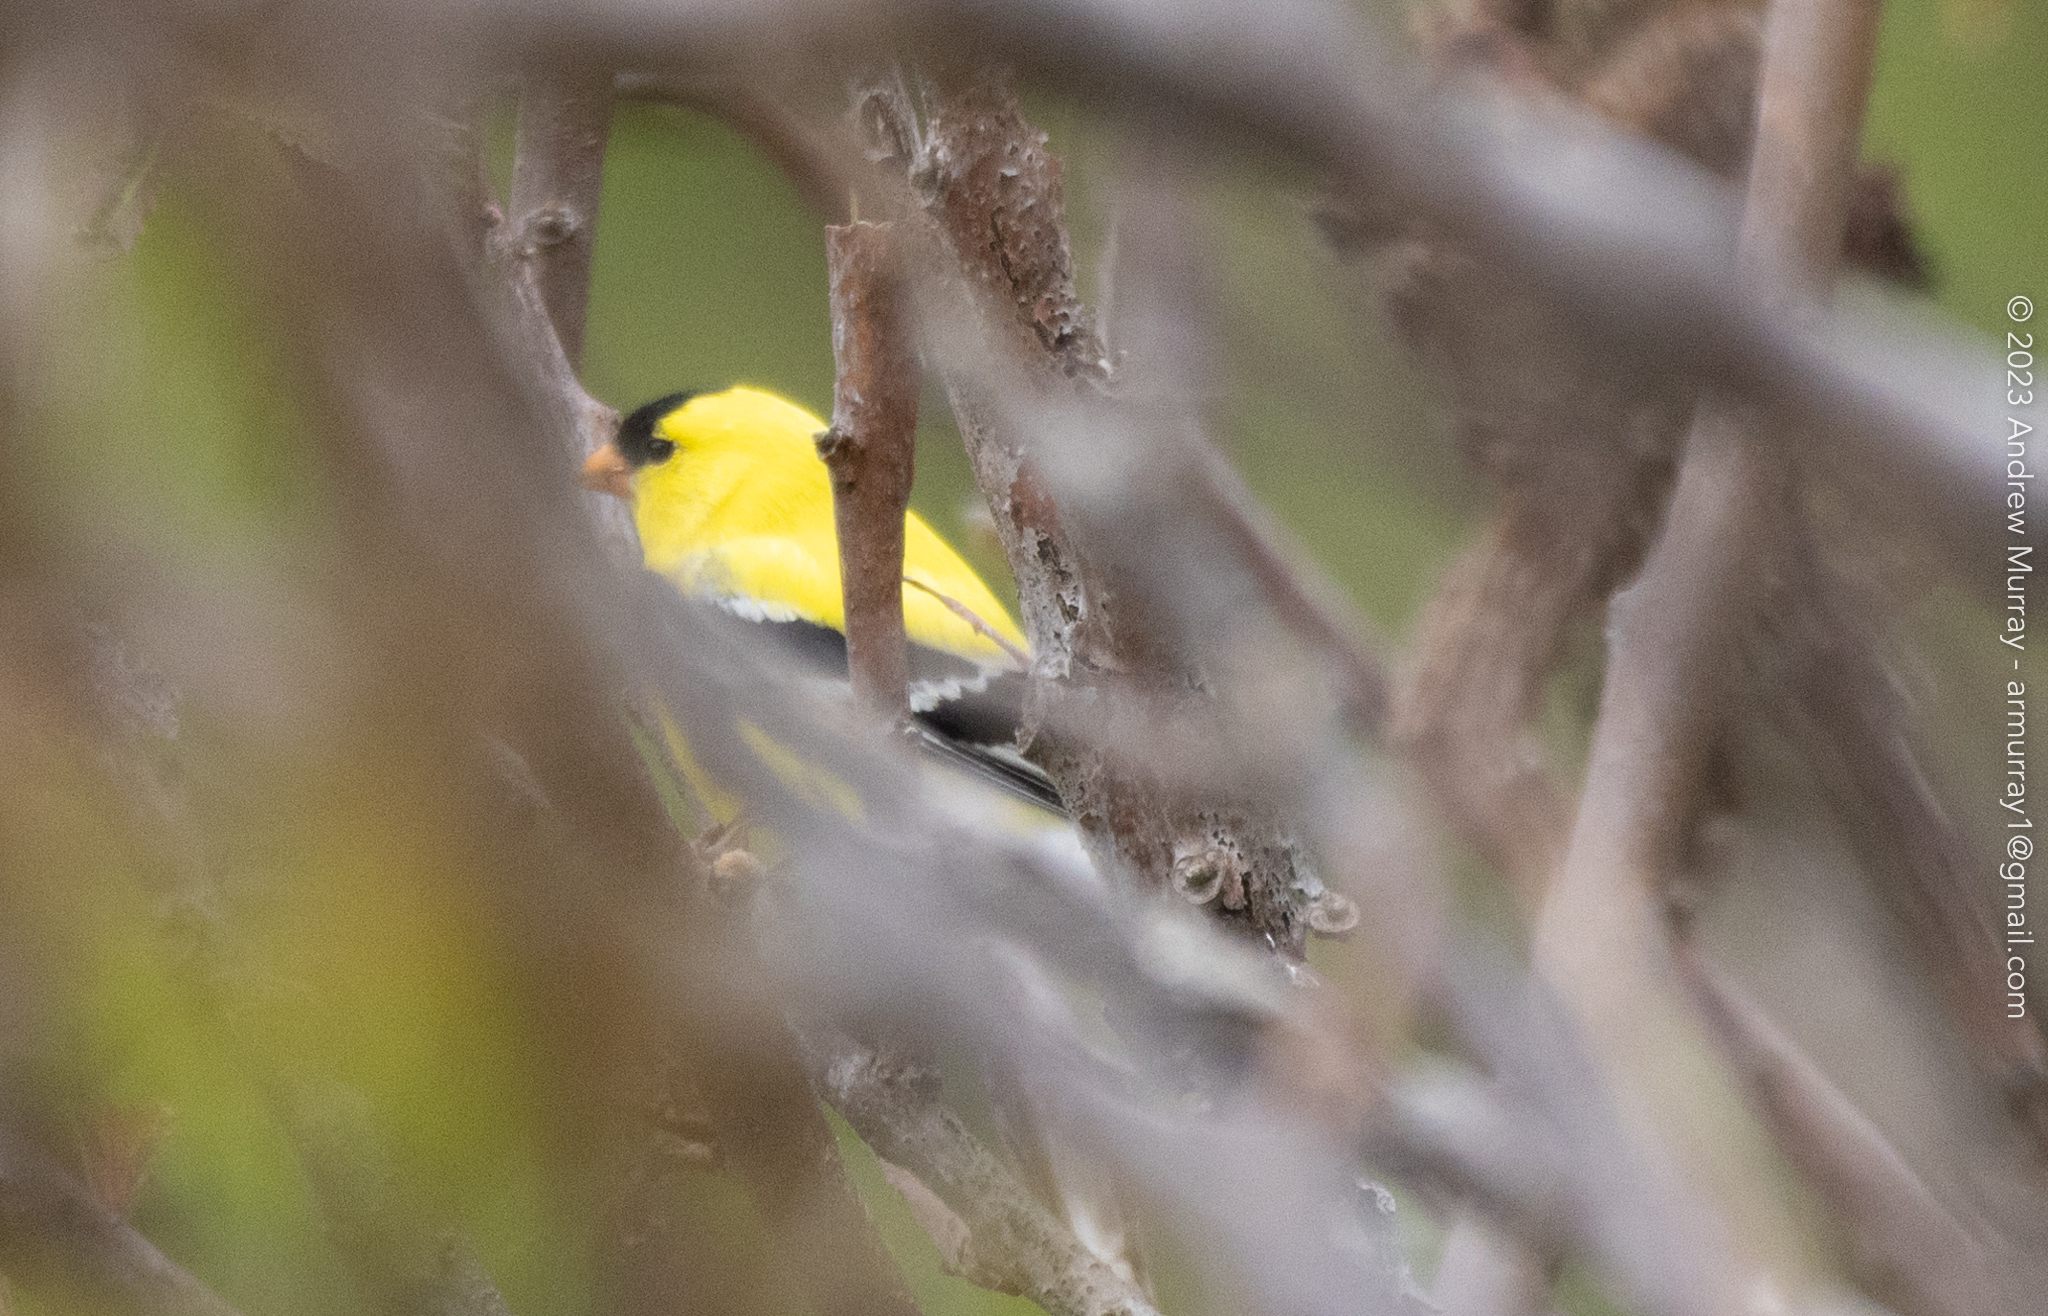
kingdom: Animalia
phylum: Chordata
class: Aves
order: Passeriformes
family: Fringillidae
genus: Spinus
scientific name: Spinus tristis
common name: American goldfinch
